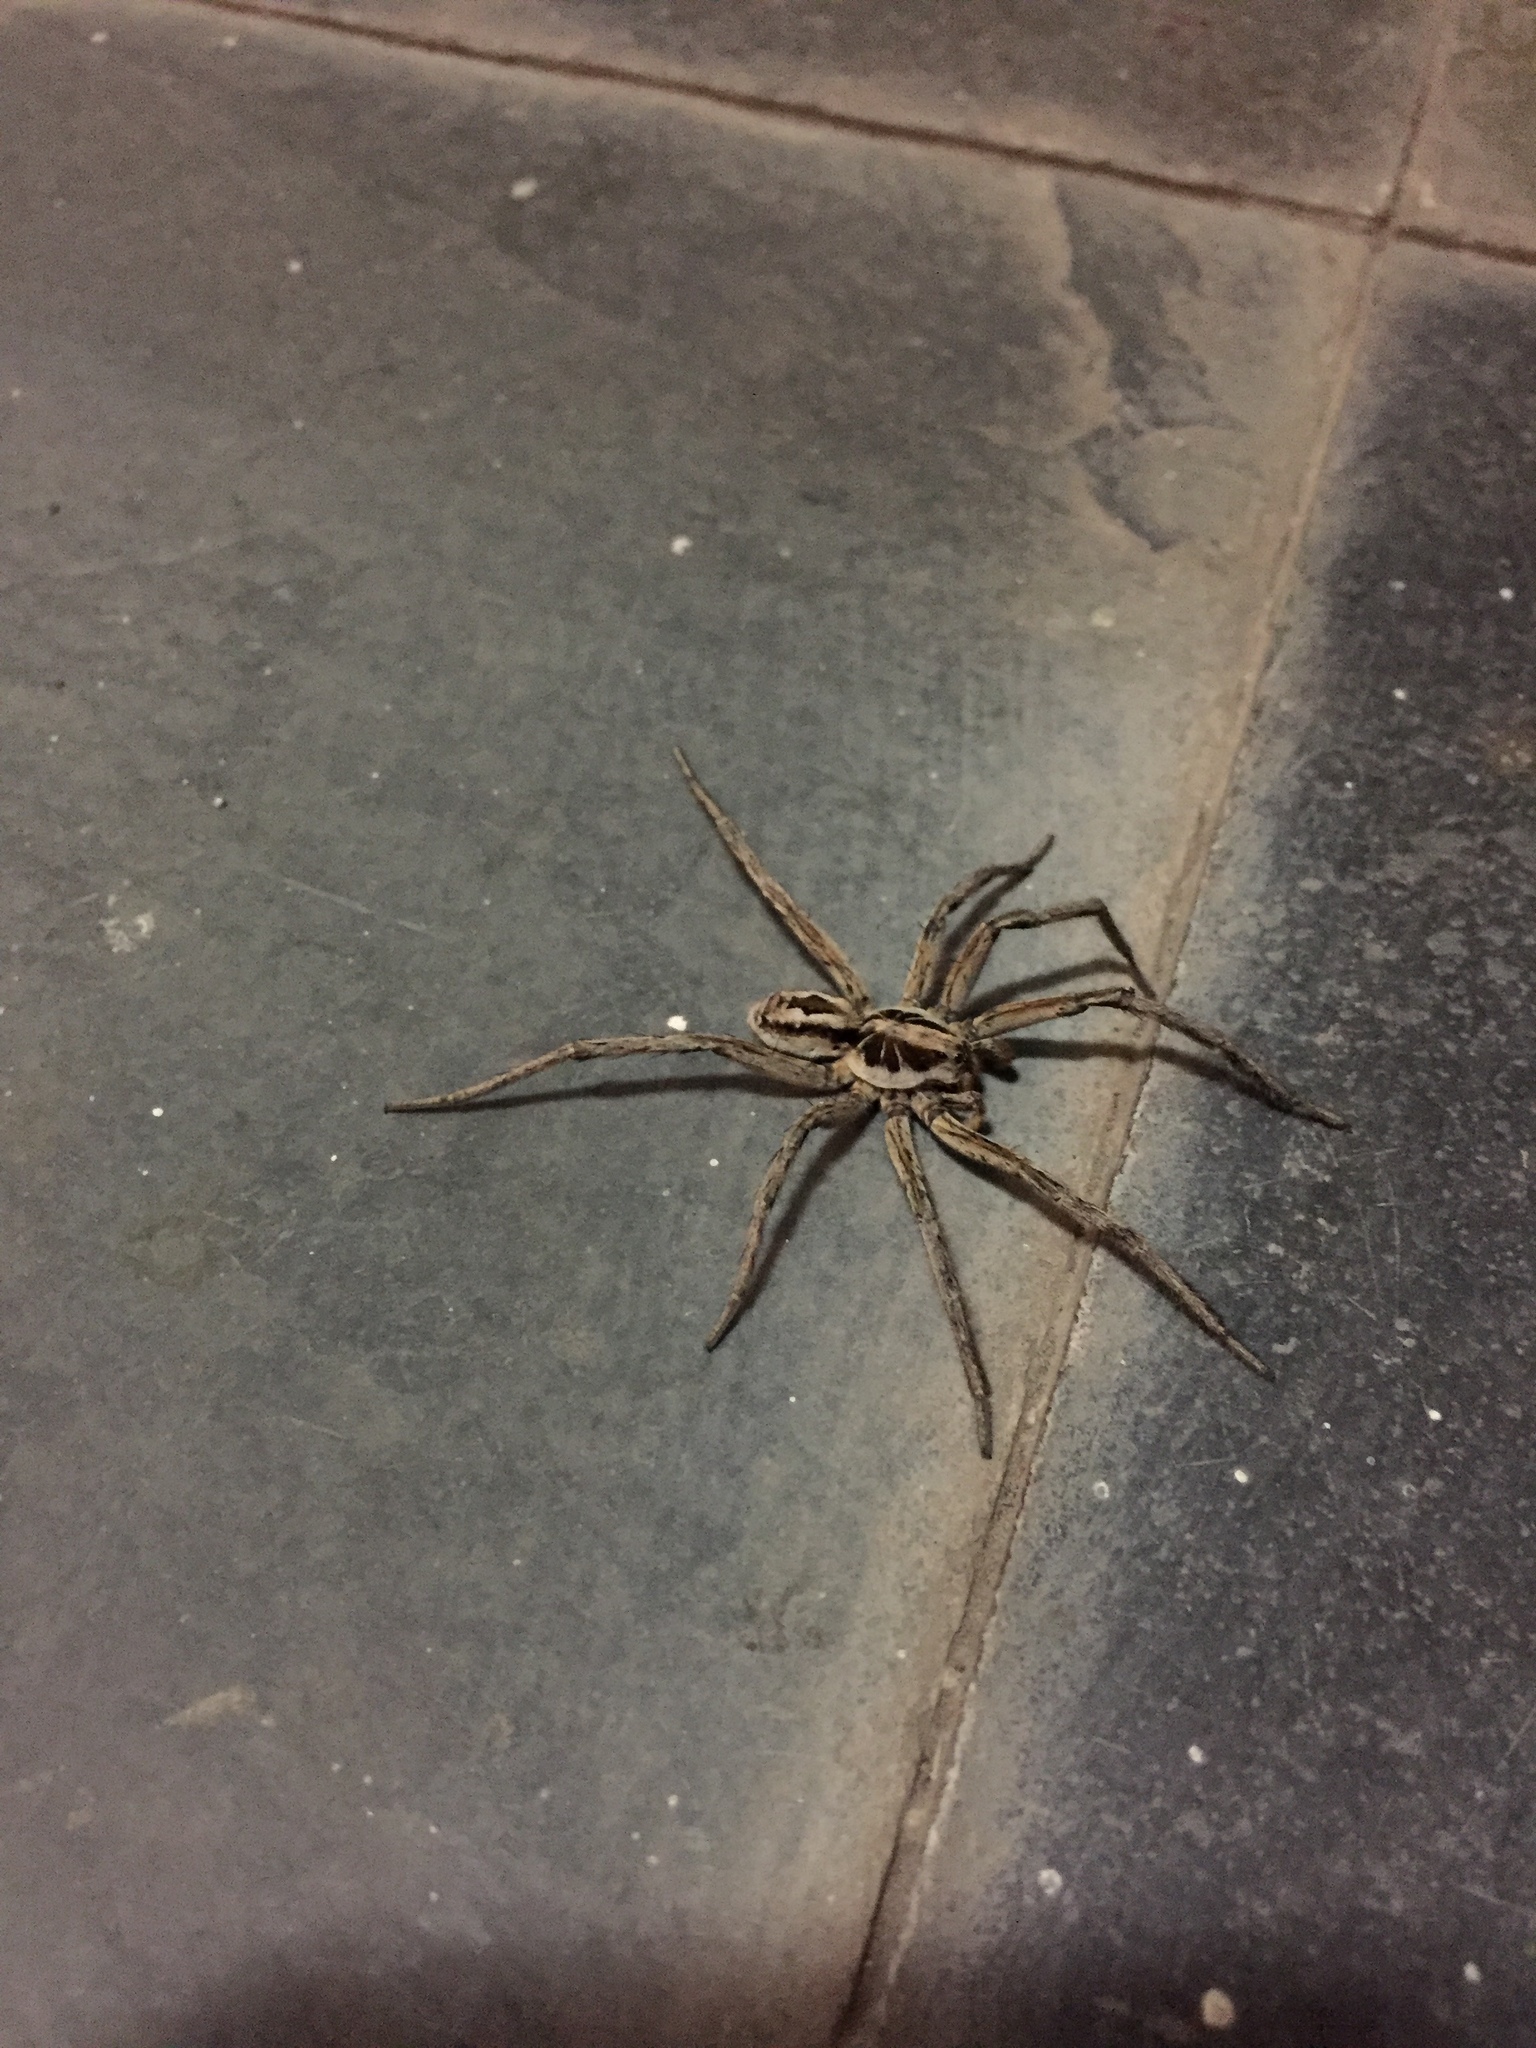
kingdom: Animalia
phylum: Arthropoda
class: Arachnida
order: Araneae
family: Lycosidae
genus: Lycosa
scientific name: Lycosa erythrognatha
